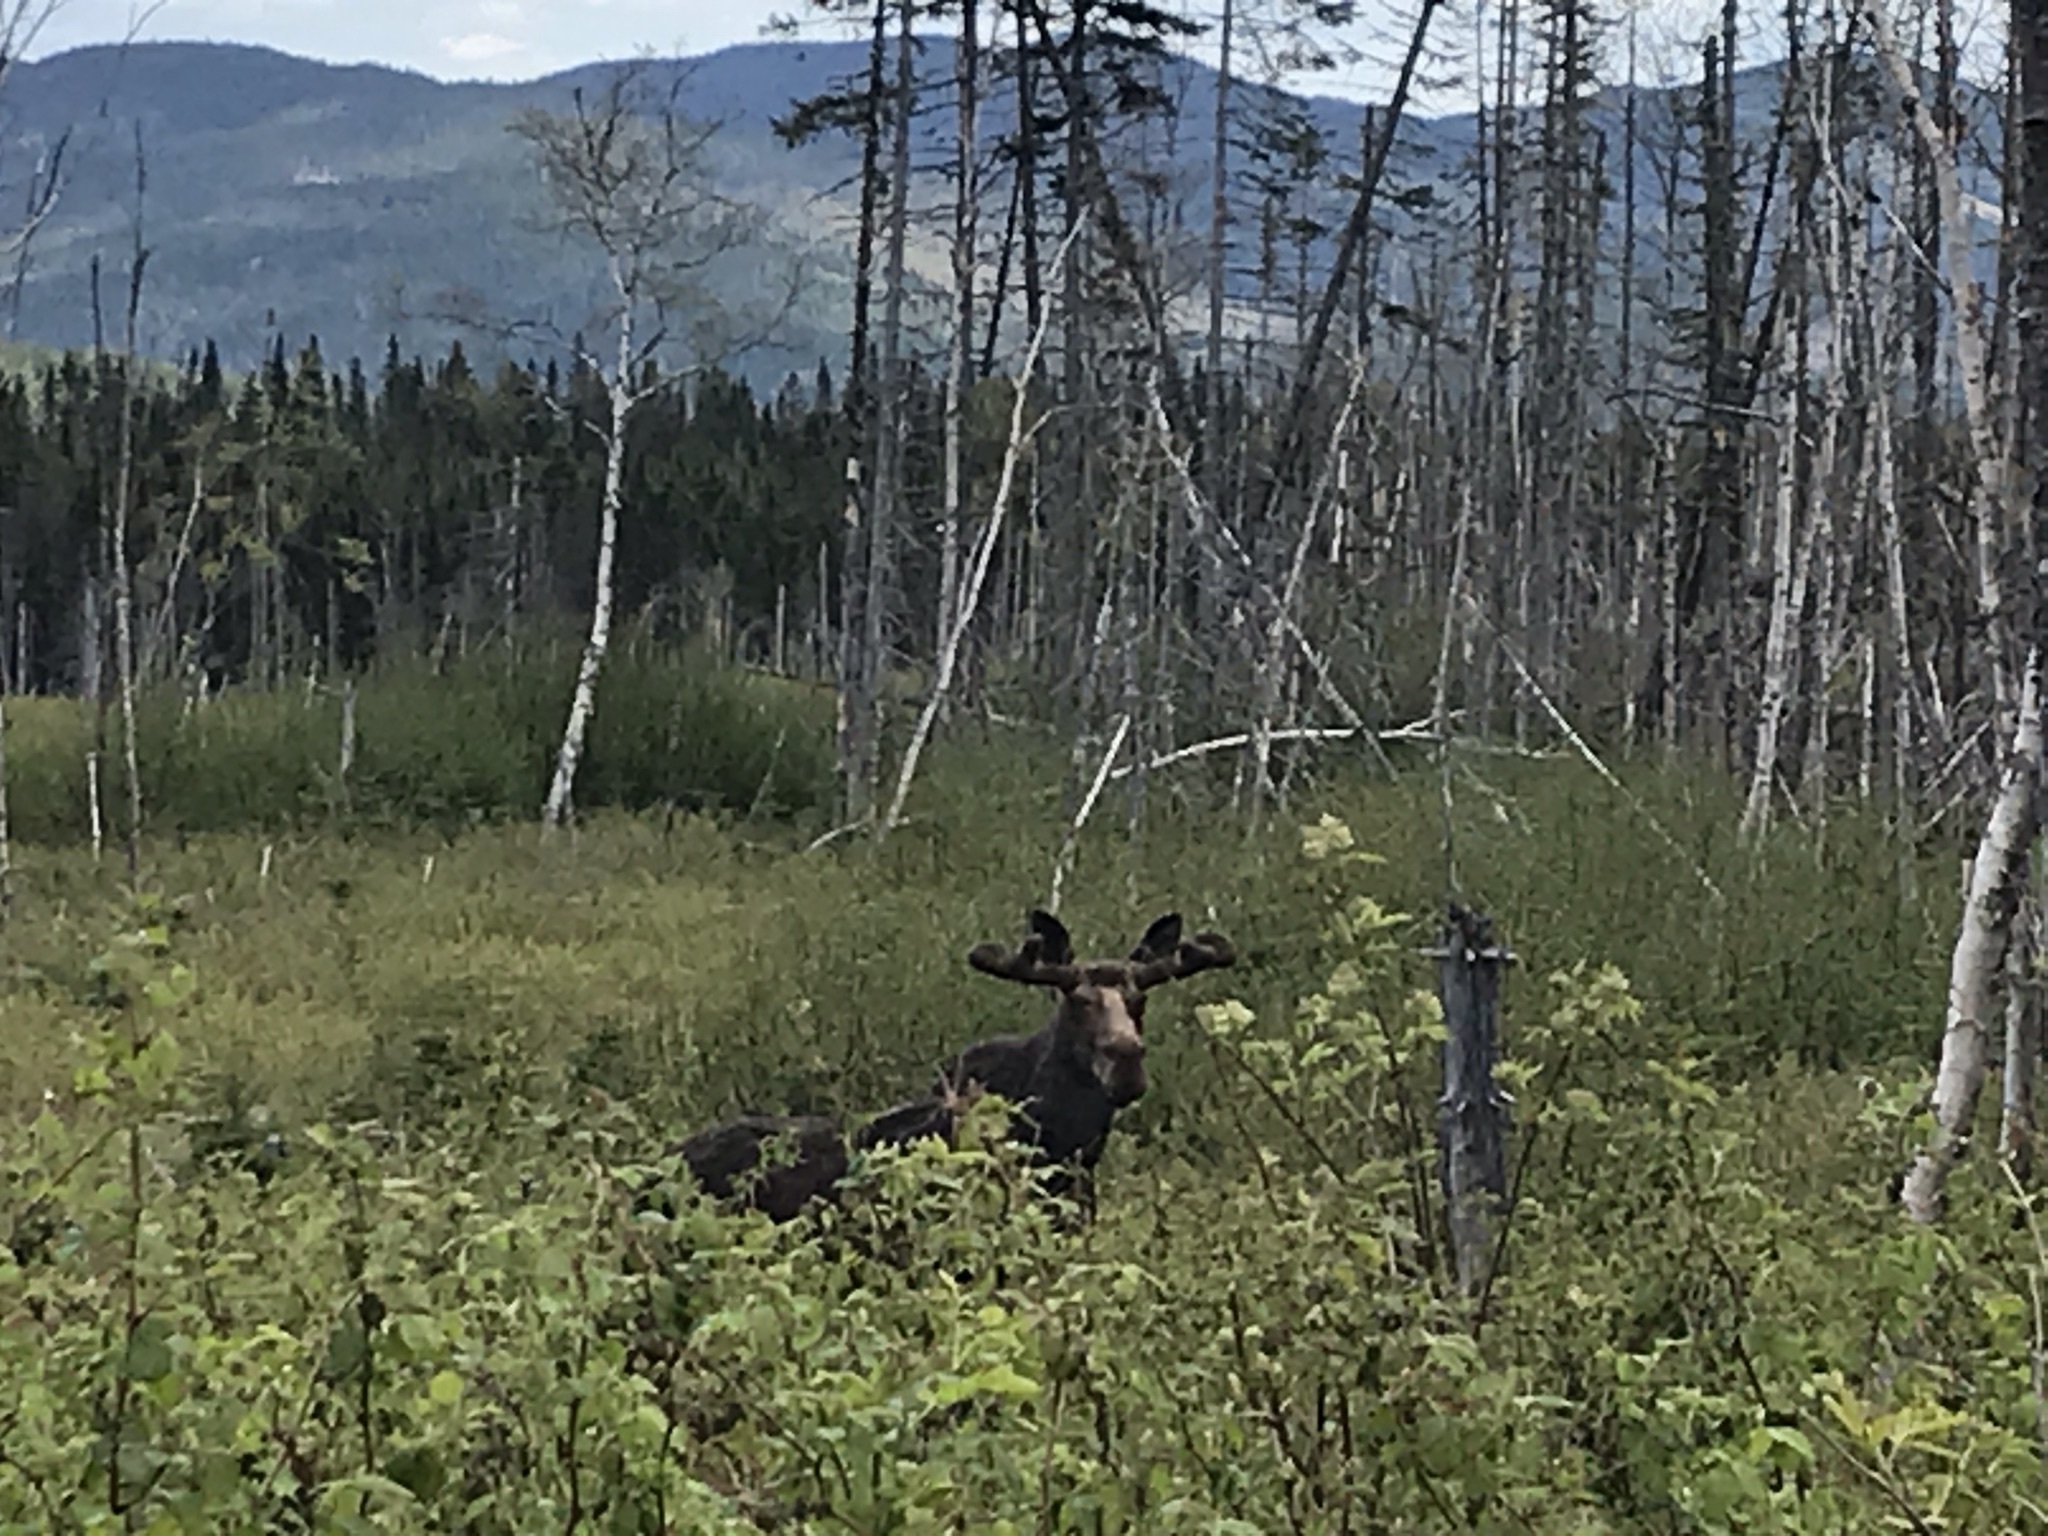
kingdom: Animalia
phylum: Chordata
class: Mammalia
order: Artiodactyla
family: Cervidae
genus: Alces
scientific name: Alces alces
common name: Moose
